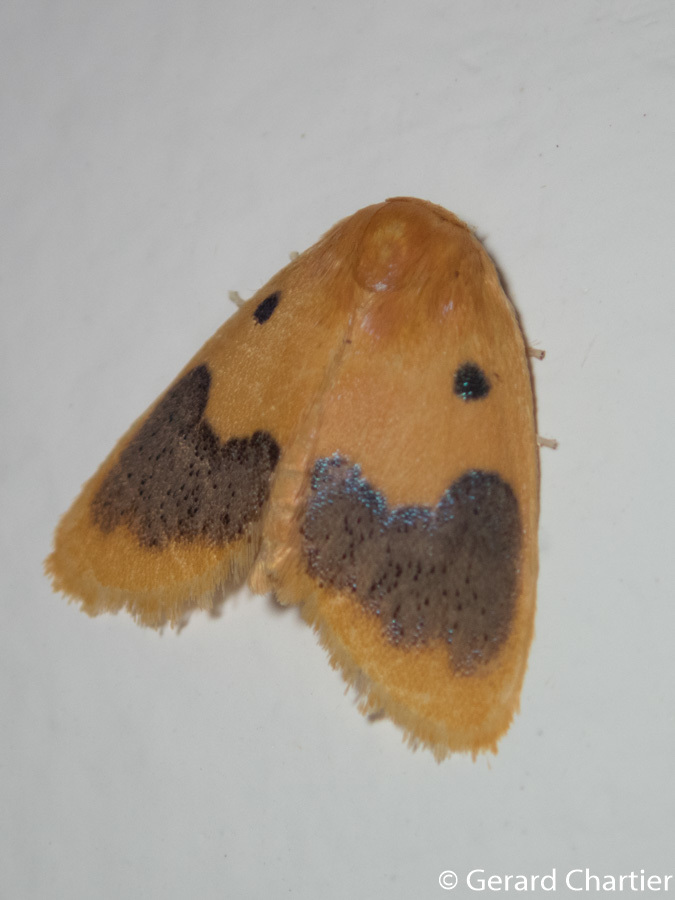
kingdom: Animalia
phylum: Arthropoda
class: Insecta
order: Lepidoptera
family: Erebidae
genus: Cyclomilta
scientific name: Cyclomilta cambodiaca
